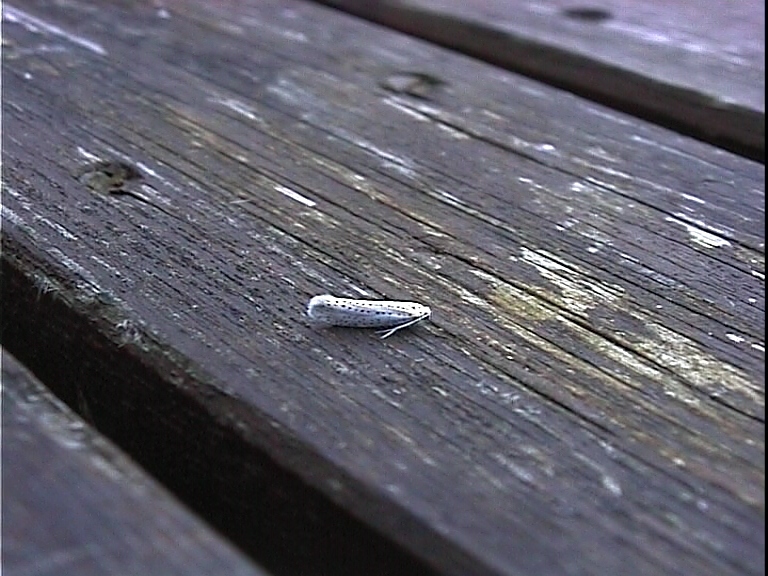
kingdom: Animalia
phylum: Arthropoda
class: Insecta
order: Lepidoptera
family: Yponomeutidae
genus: Yponomeuta
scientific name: Yponomeuta evonymella
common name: Bird-cherry ermine
